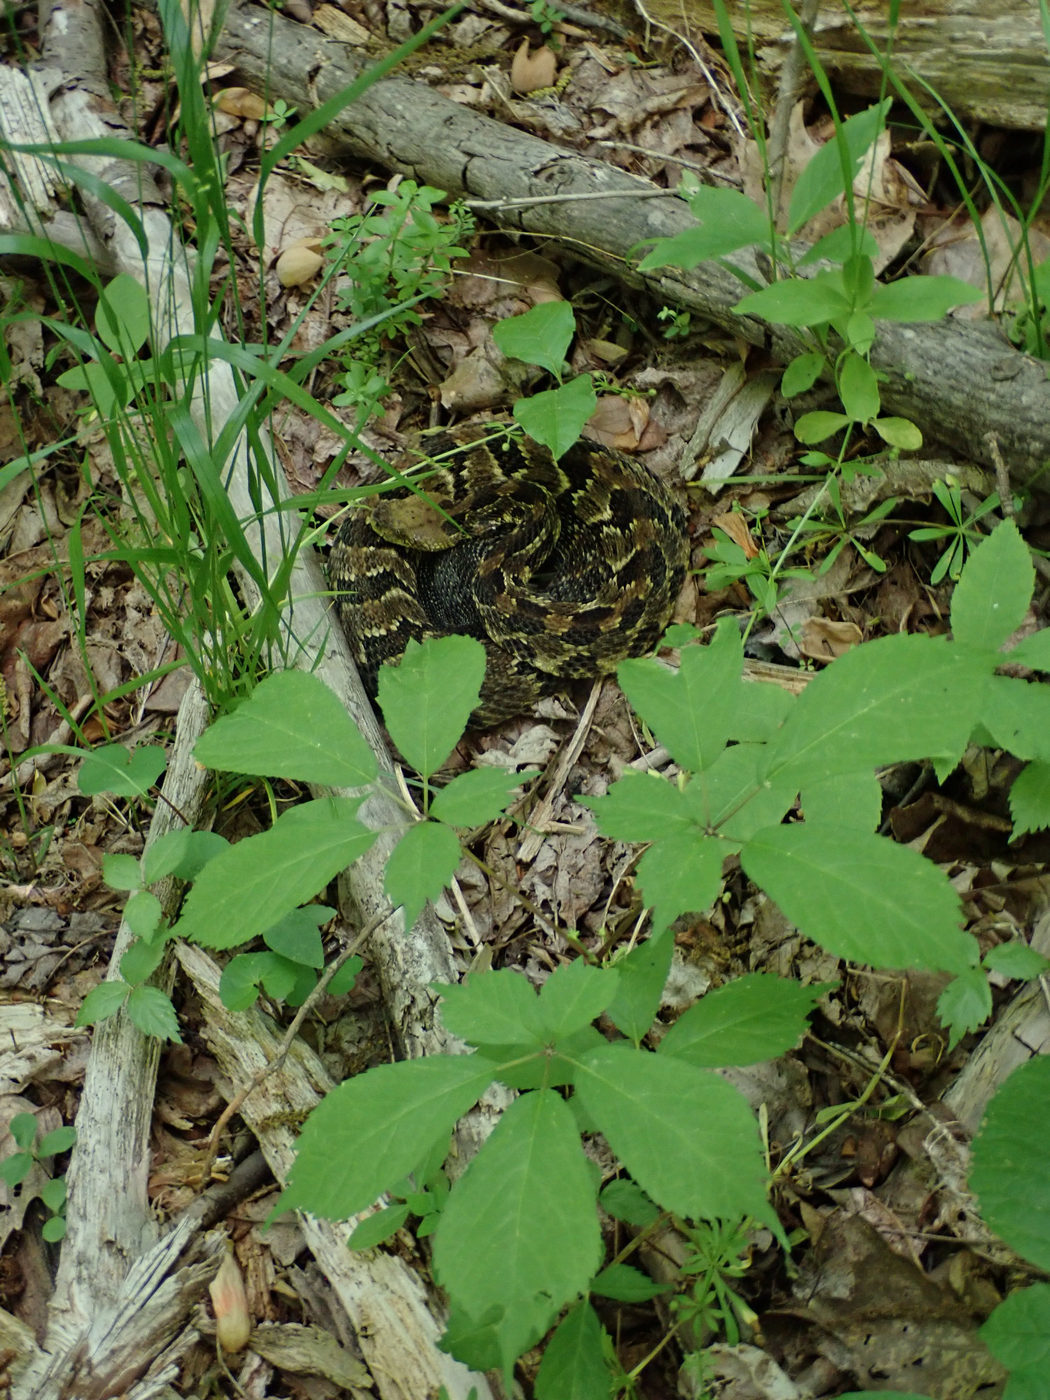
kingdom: Plantae
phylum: Tracheophyta
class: Magnoliopsida
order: Apiales
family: Araliaceae
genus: Panax
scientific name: Panax quinquefolius
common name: American ginseng
